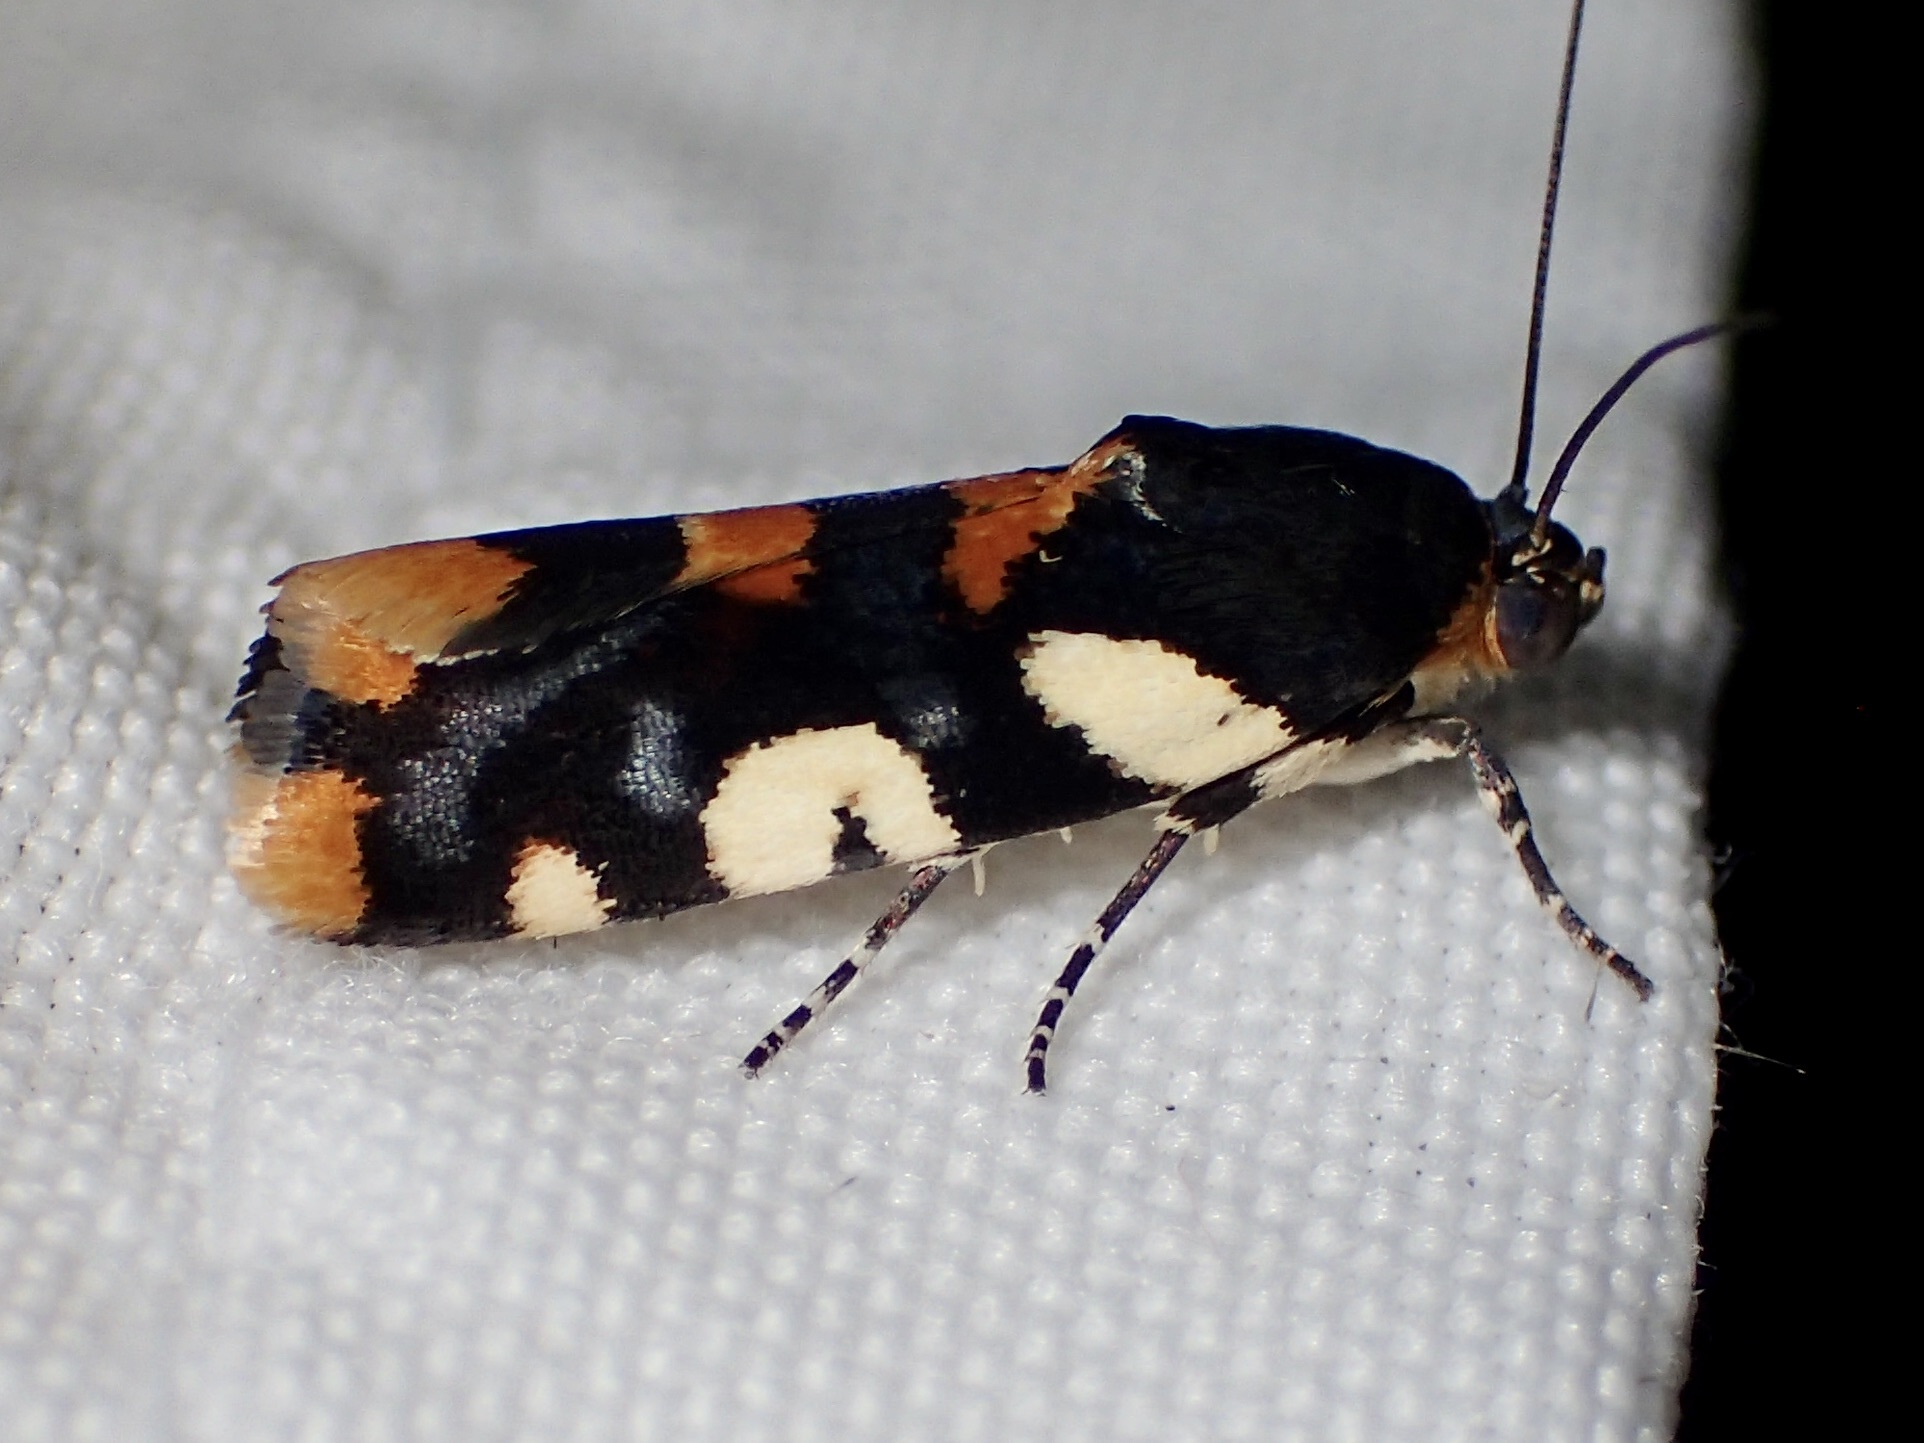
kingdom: Animalia
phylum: Arthropoda
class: Insecta
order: Lepidoptera
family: Noctuidae
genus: Acontia
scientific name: Acontia dama
